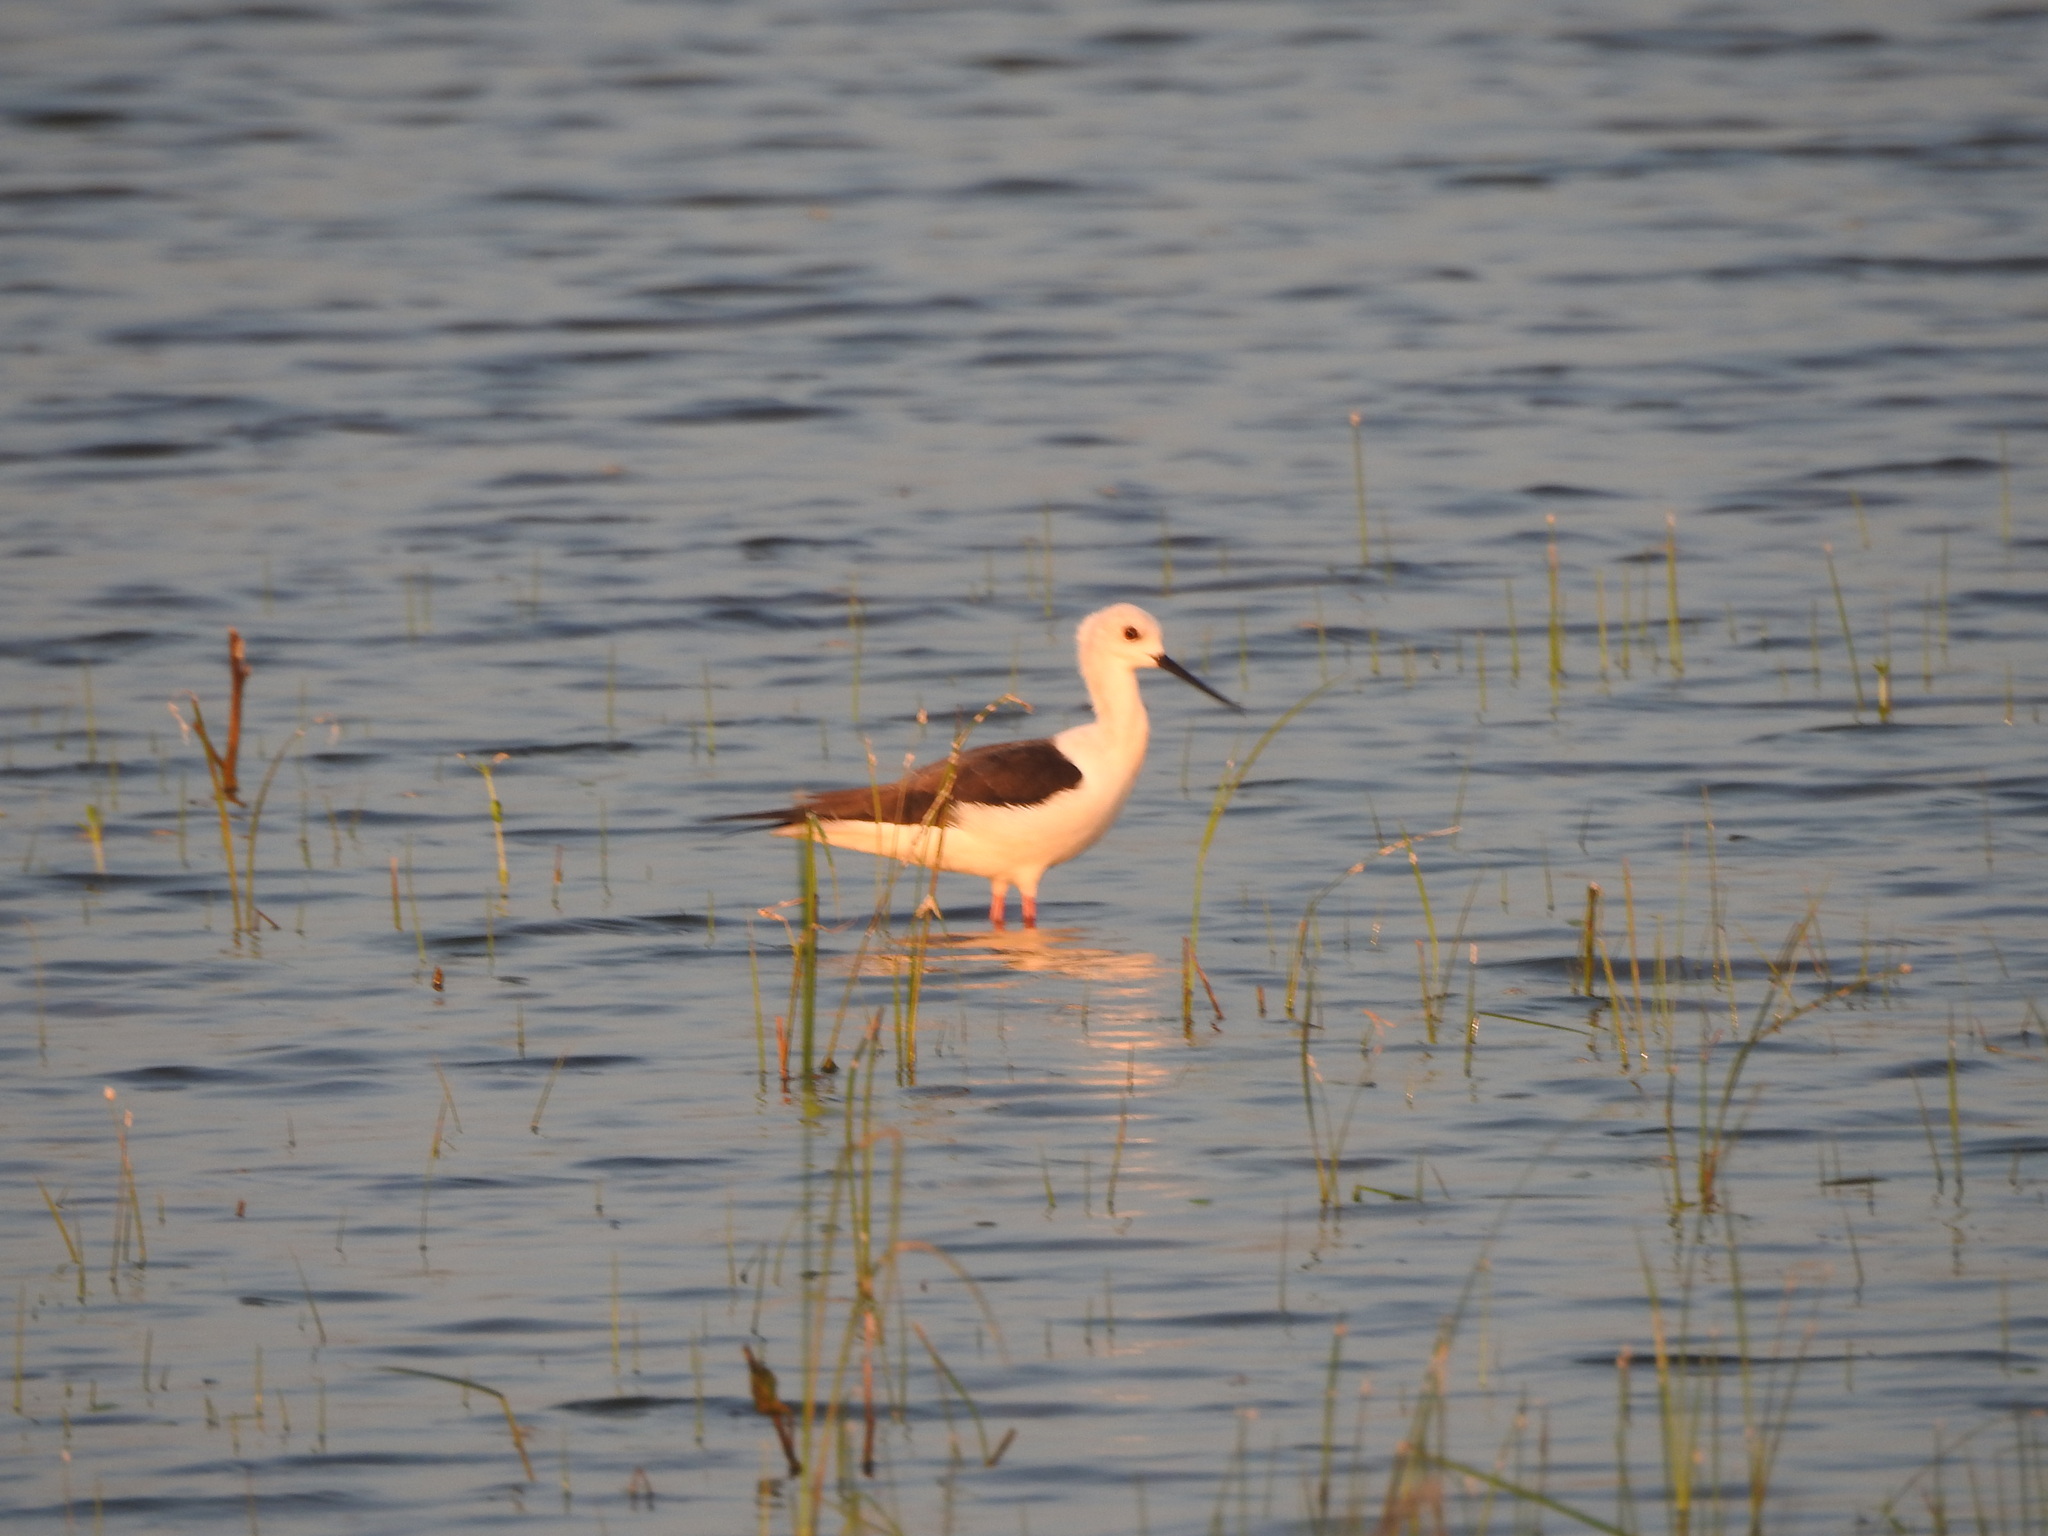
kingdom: Animalia
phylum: Chordata
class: Aves
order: Charadriiformes
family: Recurvirostridae
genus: Himantopus
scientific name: Himantopus himantopus
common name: Black-winged stilt
